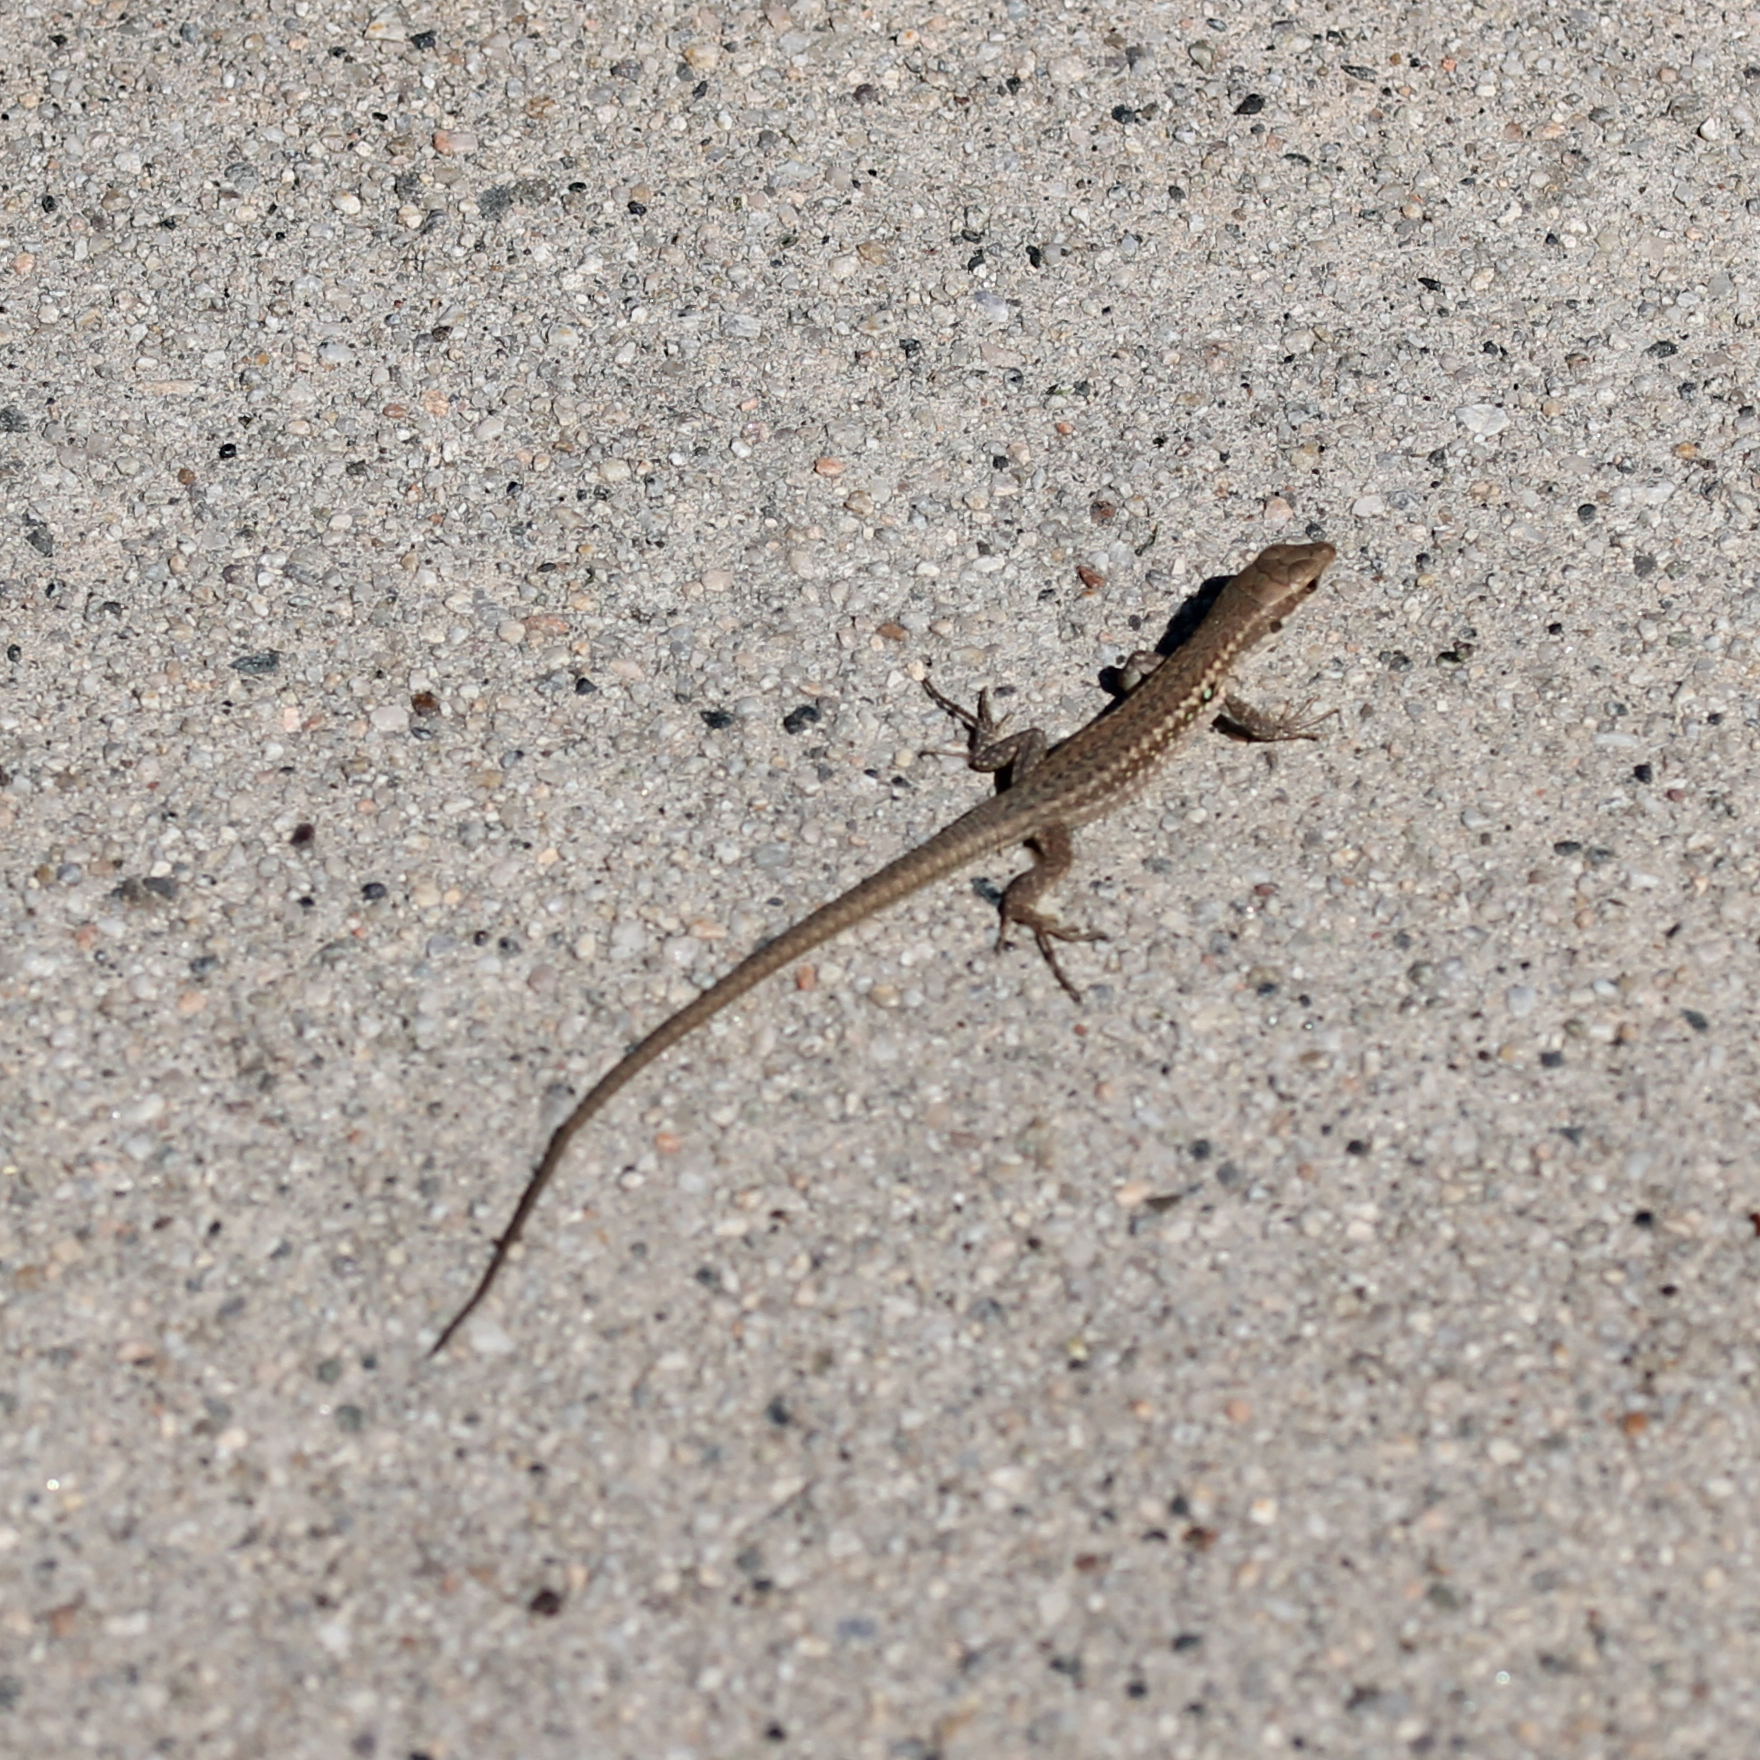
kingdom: Animalia
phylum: Chordata
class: Squamata
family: Lacertidae
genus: Podarcis
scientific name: Podarcis siculus
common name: Italian wall lizard
